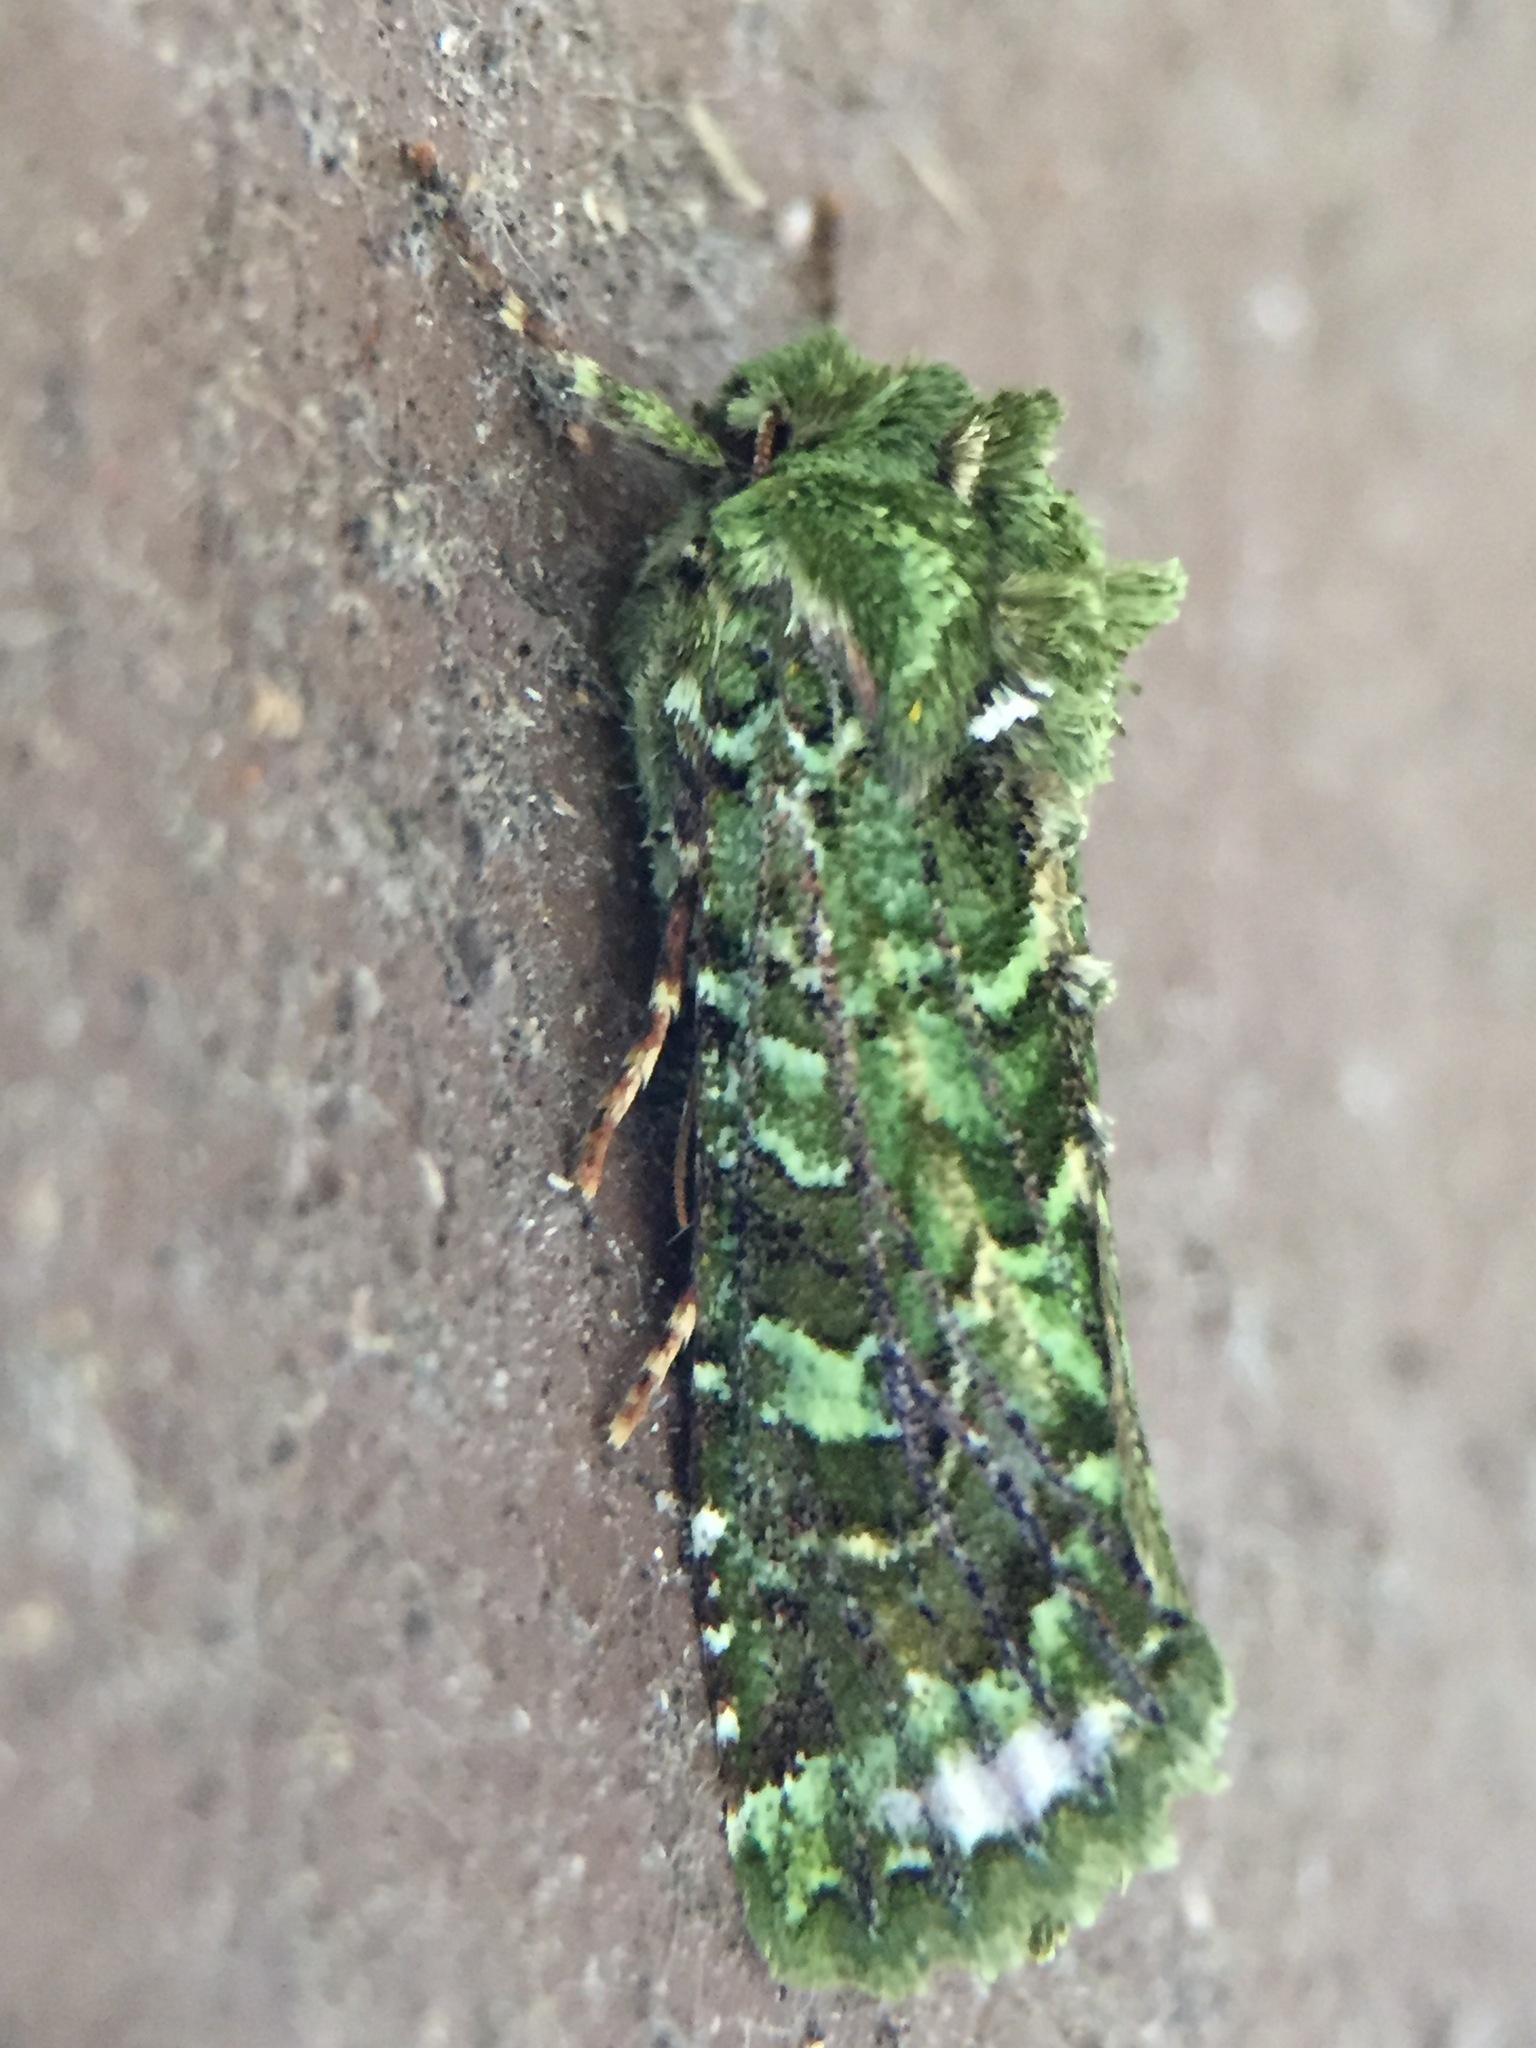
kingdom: Animalia
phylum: Arthropoda
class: Insecta
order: Lepidoptera
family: Noctuidae
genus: Feredayia
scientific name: Feredayia grammosa
